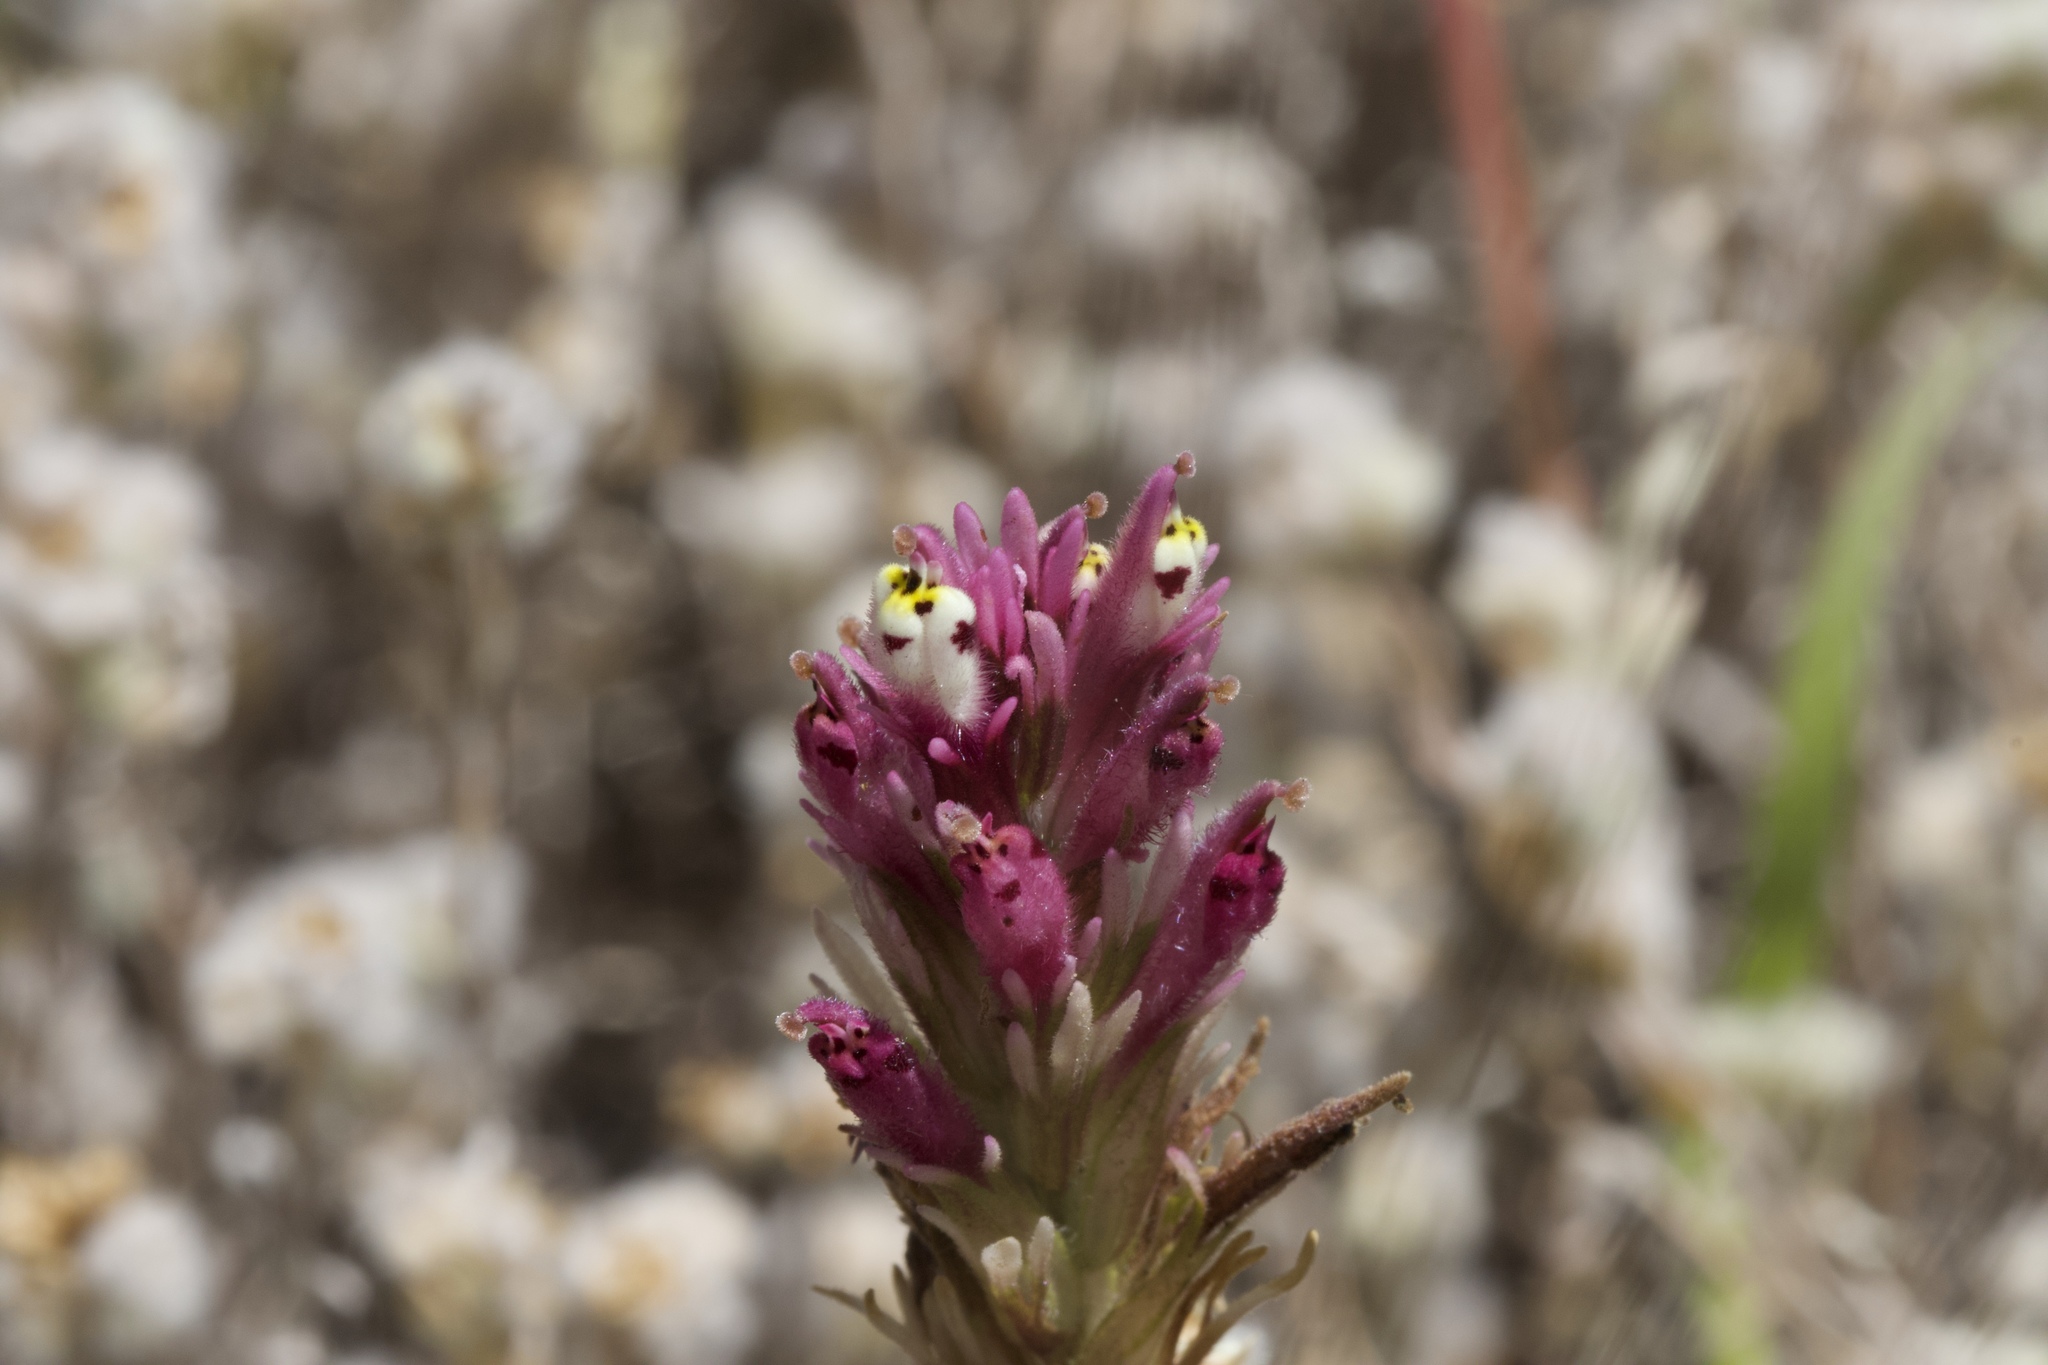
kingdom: Plantae
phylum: Tracheophyta
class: Magnoliopsida
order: Lamiales
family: Orobanchaceae
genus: Castilleja
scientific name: Castilleja densiflora
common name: Dense-flower indian paintbrush
